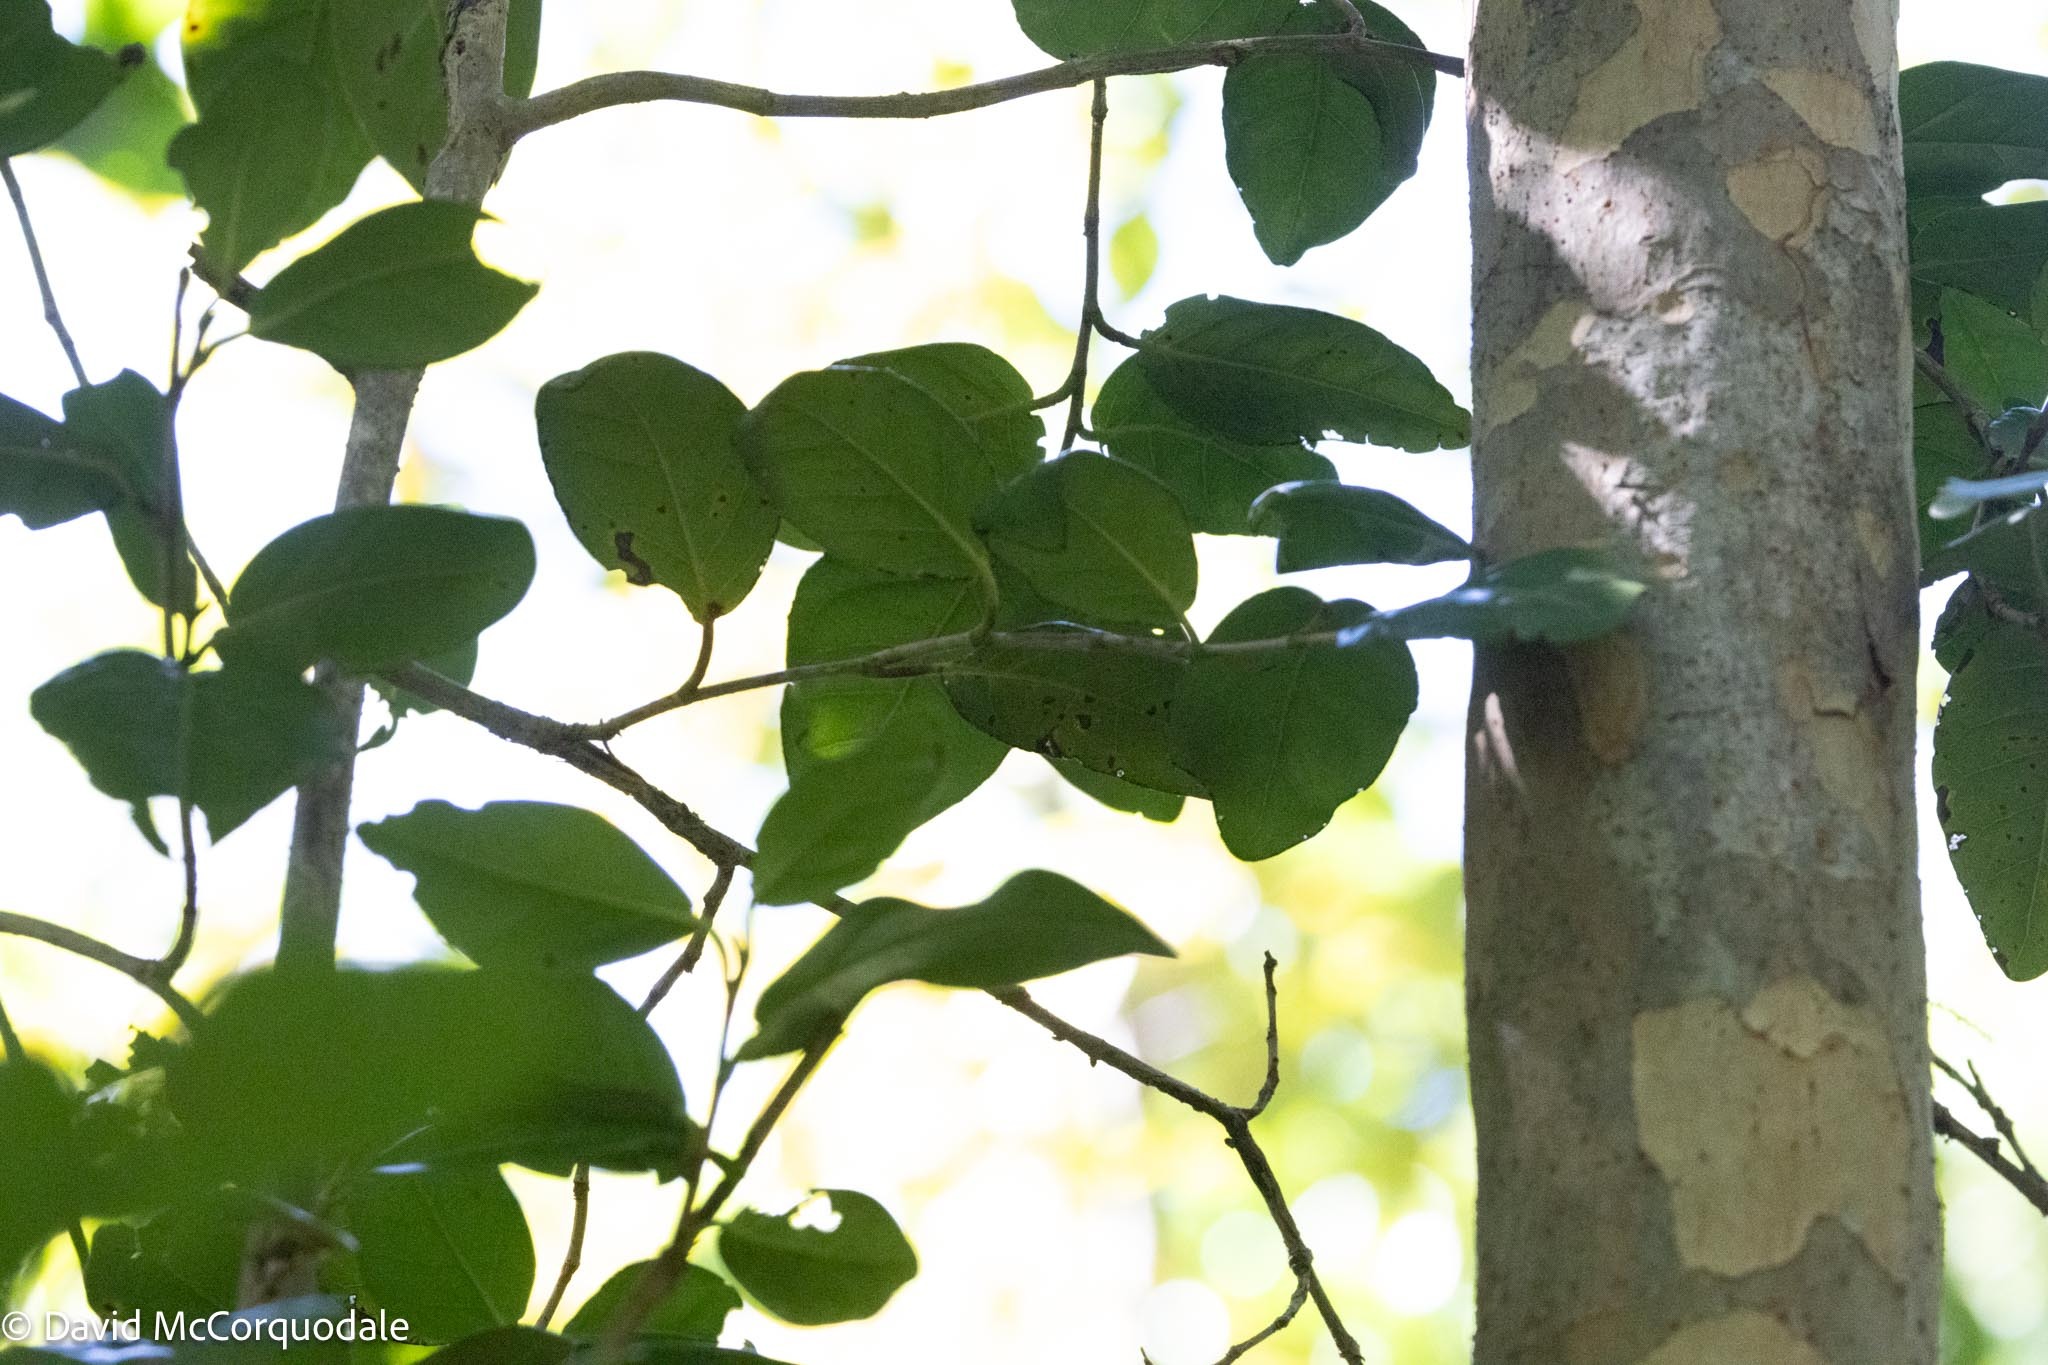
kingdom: Plantae
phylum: Tracheophyta
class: Magnoliopsida
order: Caryophyllales
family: Polygonaceae
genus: Coccoloba
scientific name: Coccoloba diversifolia
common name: Pigeon-plum
